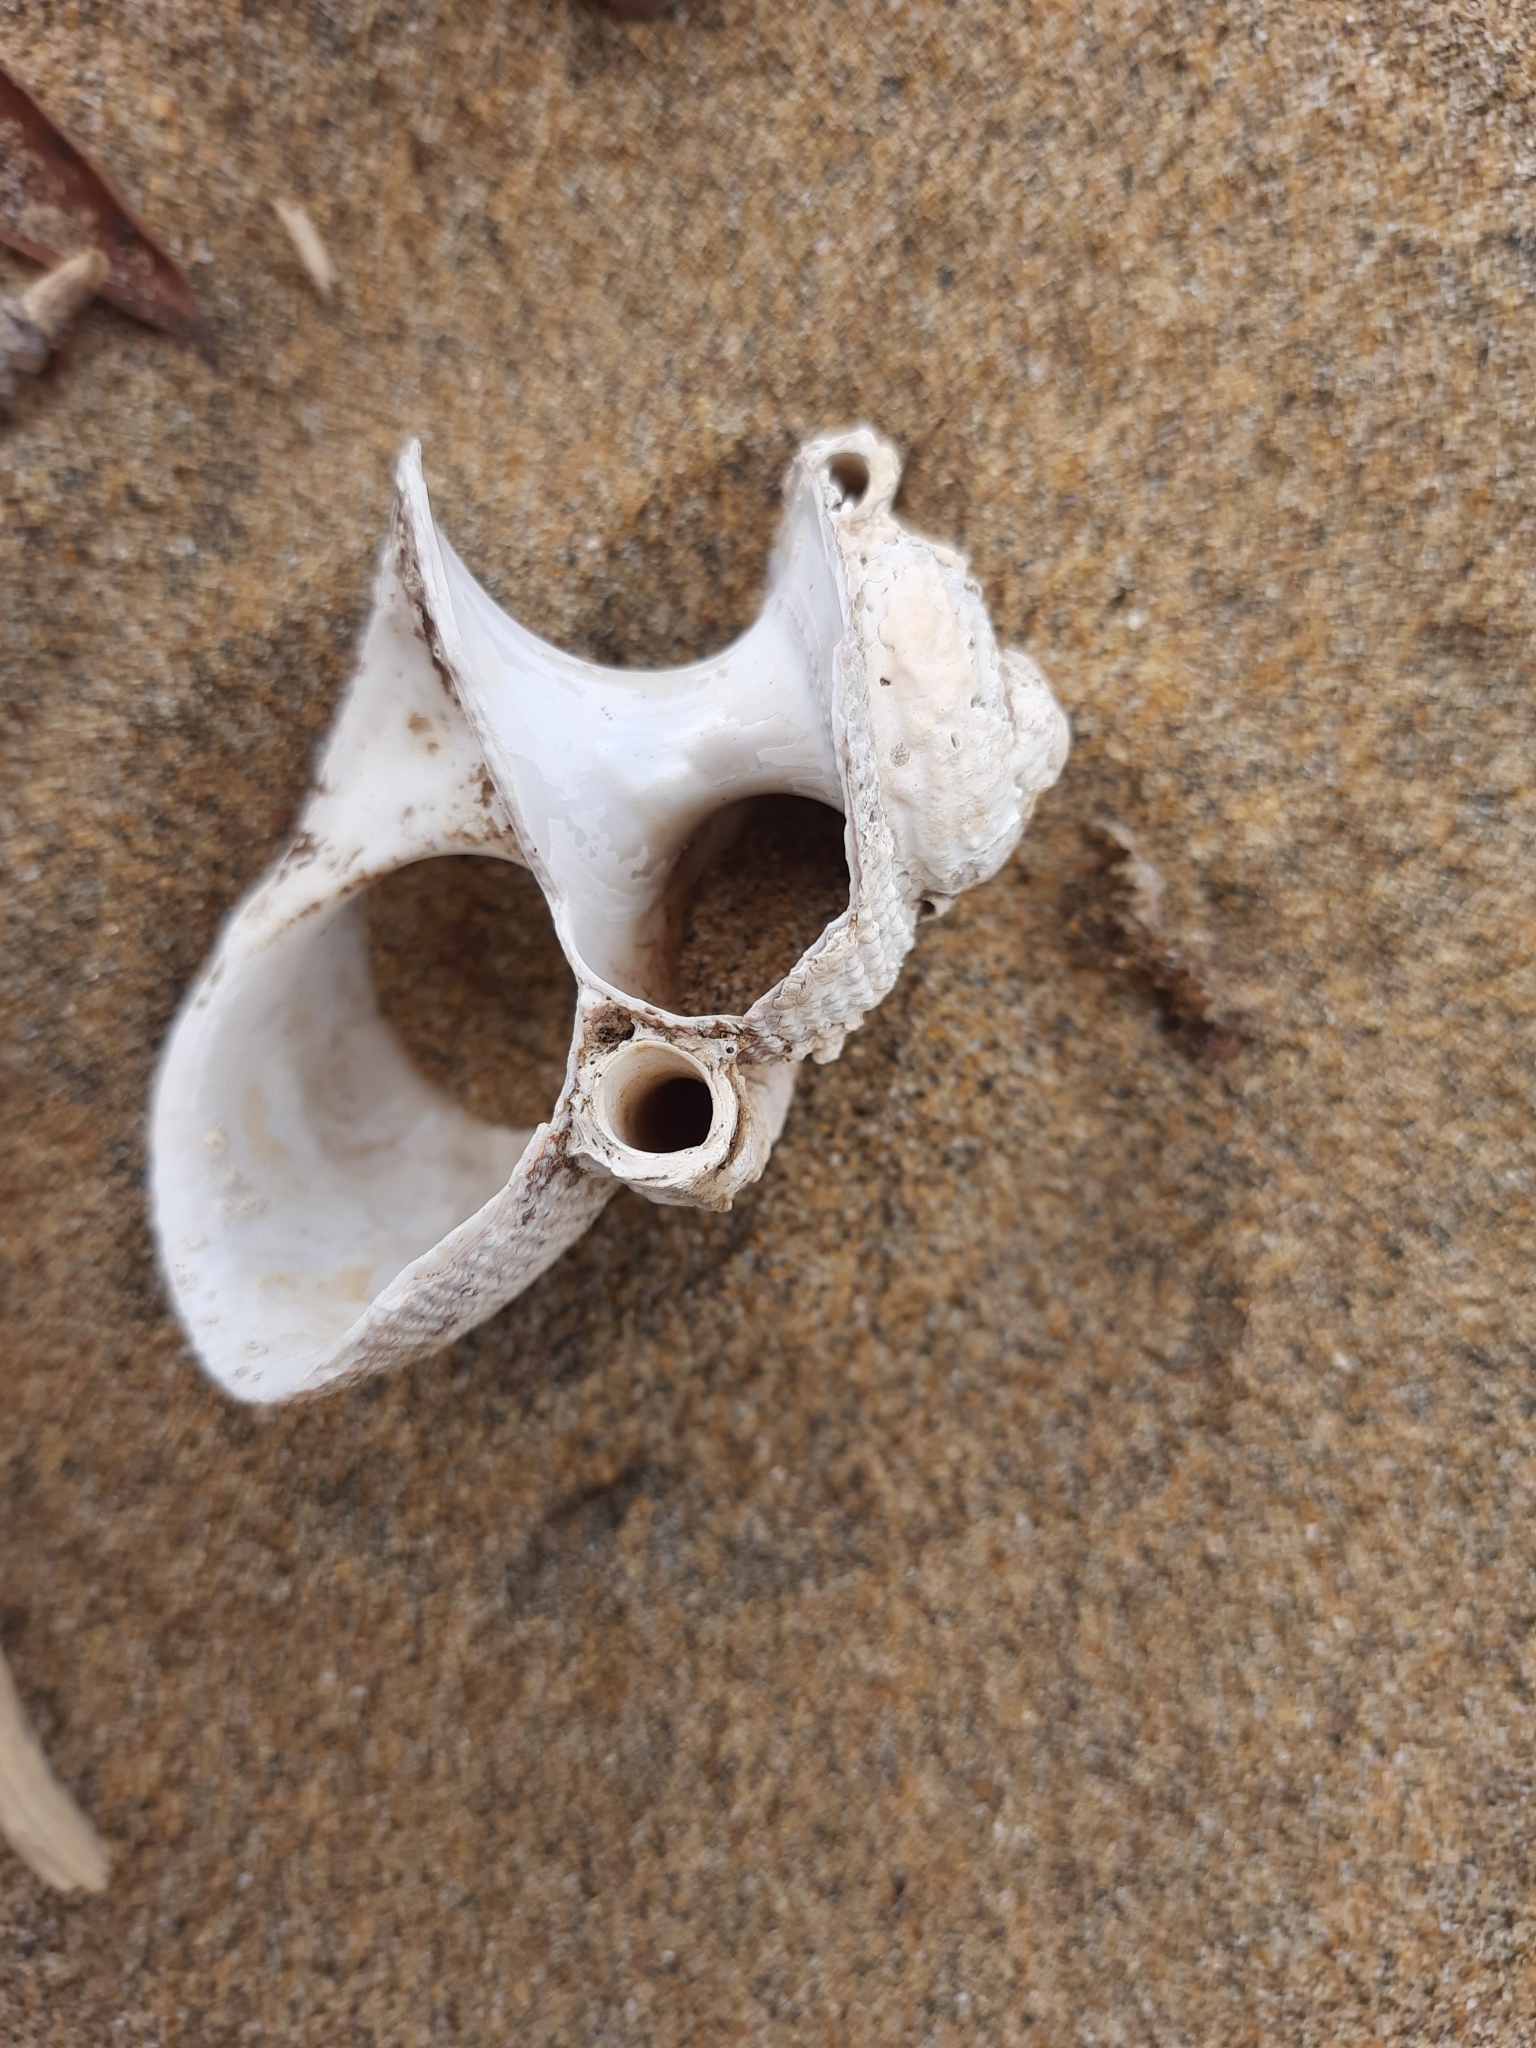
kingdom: Animalia
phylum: Mollusca
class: Gastropoda
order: Trochida
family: Turbinidae
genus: Modelia
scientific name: Modelia granosa
